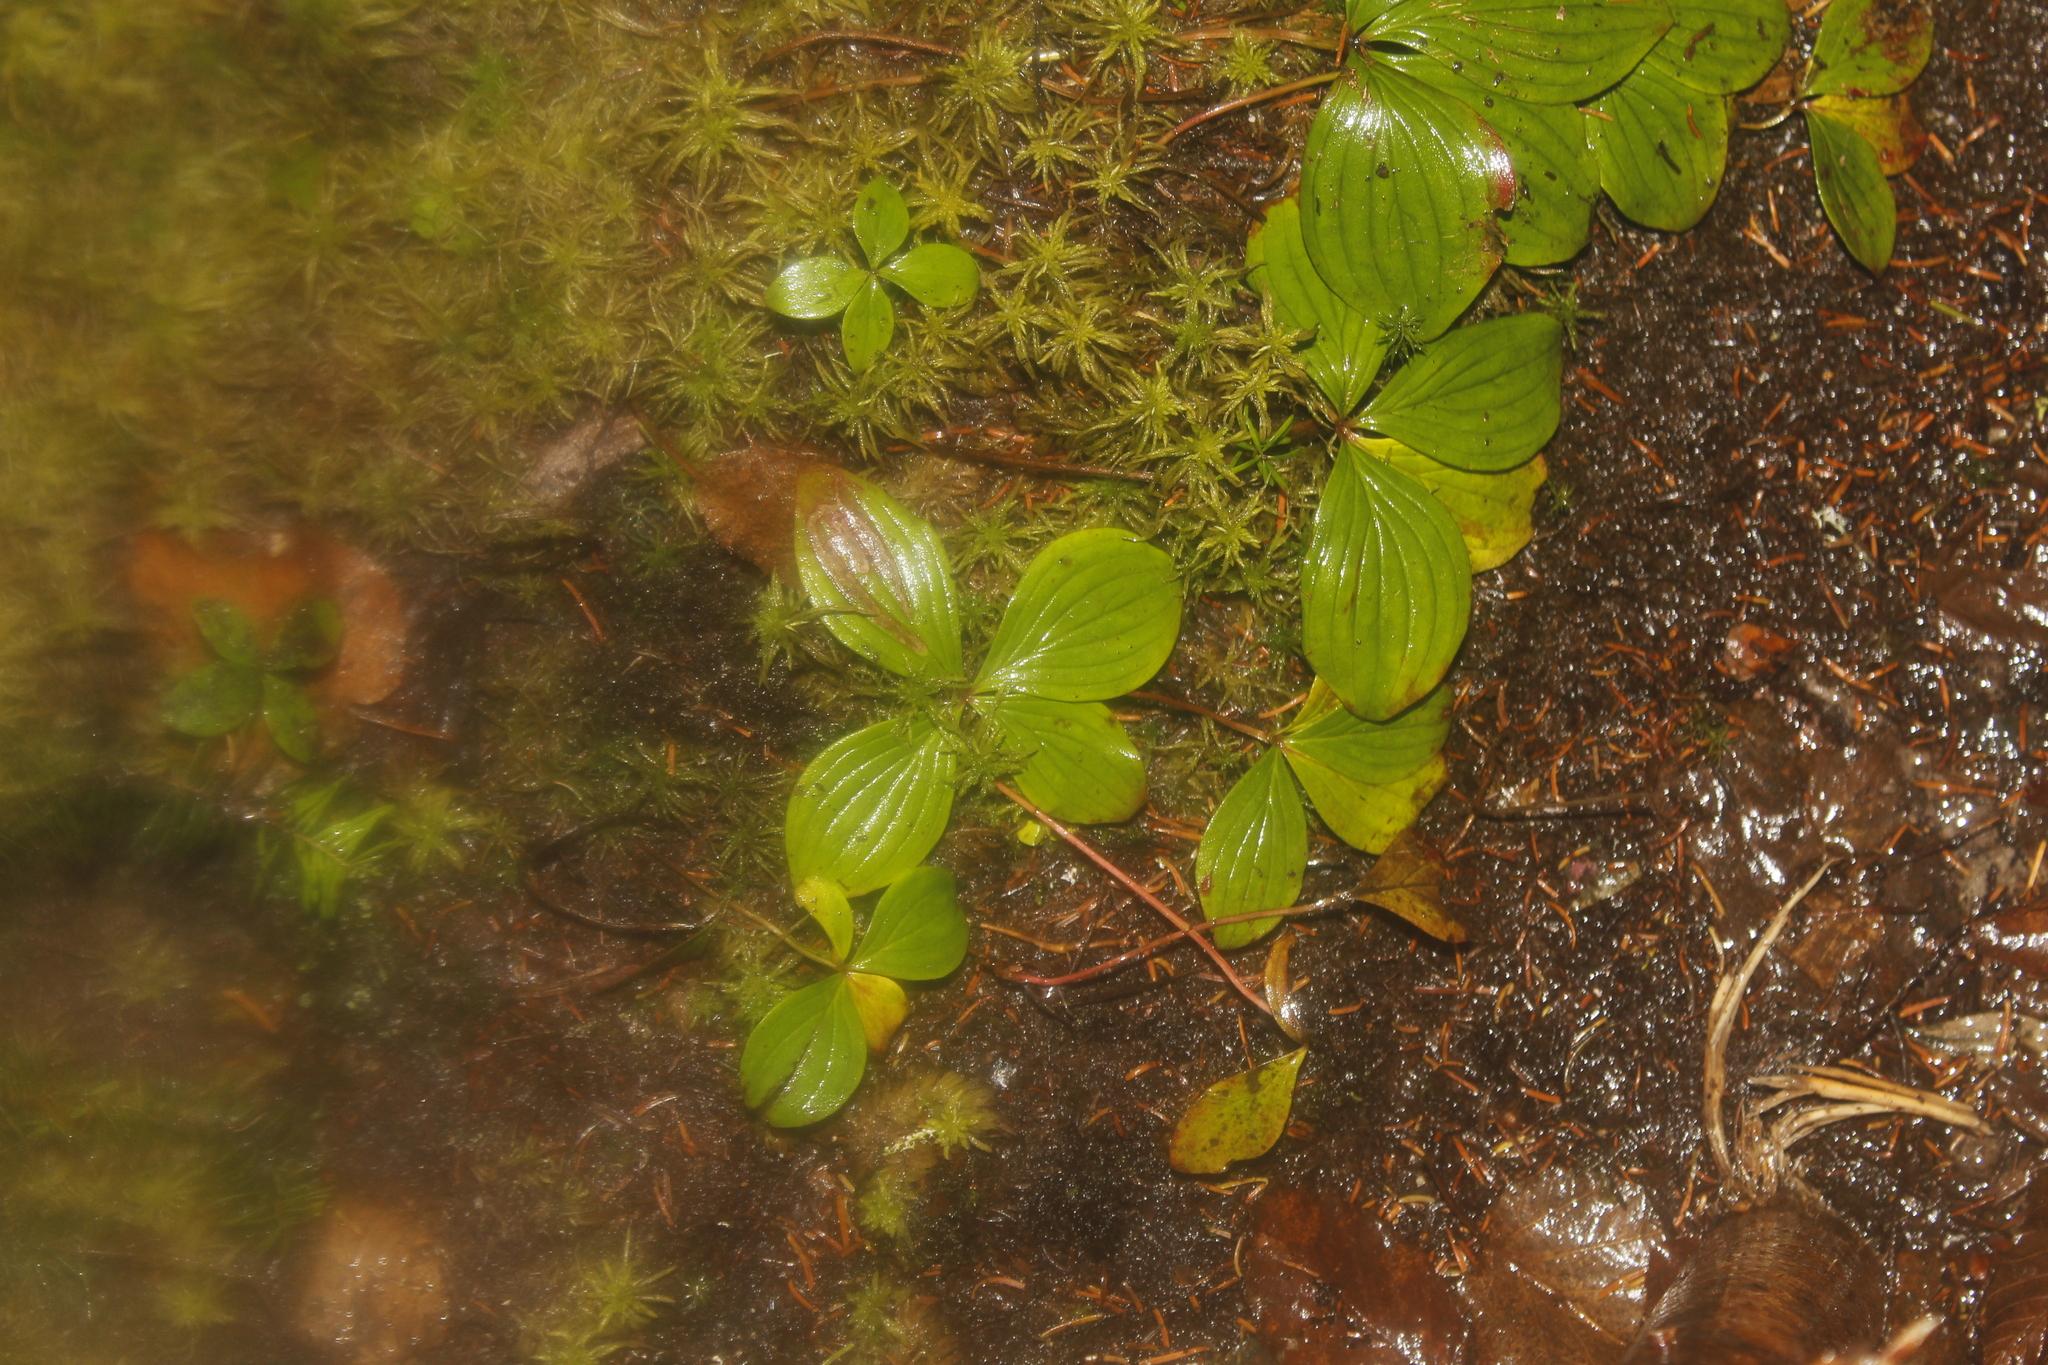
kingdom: Plantae
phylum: Tracheophyta
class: Magnoliopsida
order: Cornales
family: Cornaceae
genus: Cornus
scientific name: Cornus canadensis
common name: Creeping dogwood
